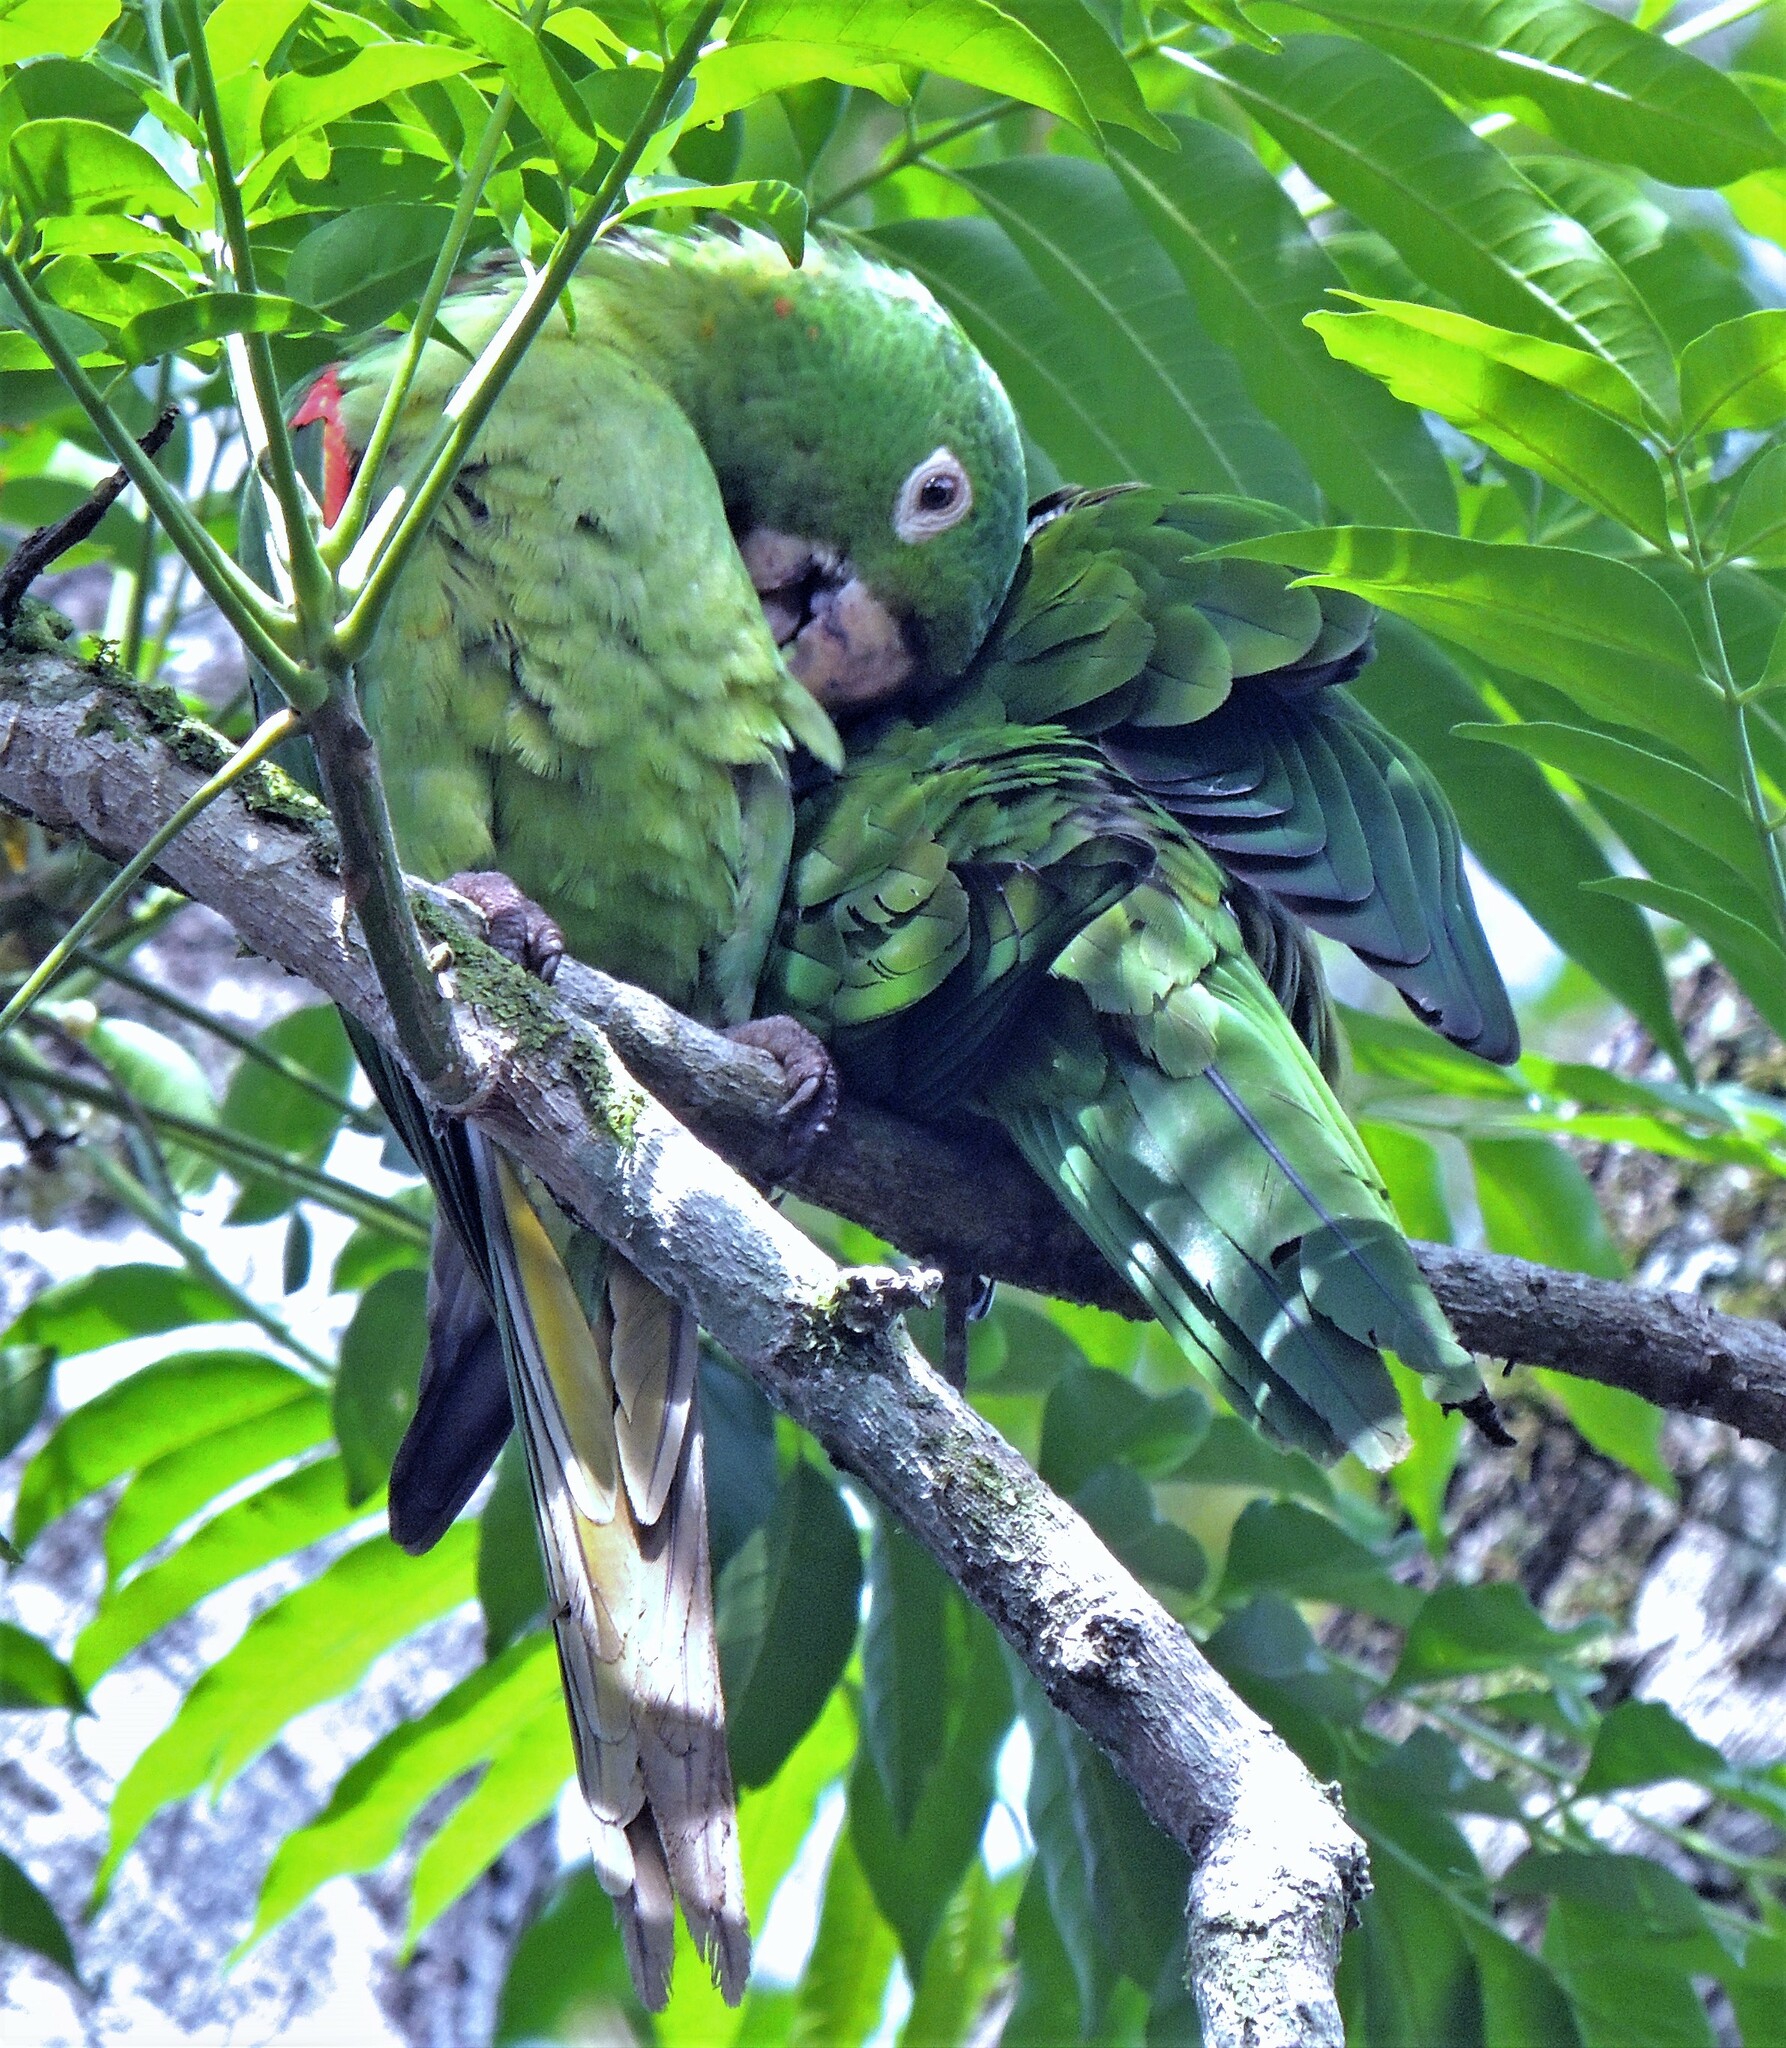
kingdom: Animalia
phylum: Chordata
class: Aves
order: Psittaciformes
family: Psittacidae
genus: Aratinga
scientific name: Aratinga leucophthalma
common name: White-eyed parakeet
